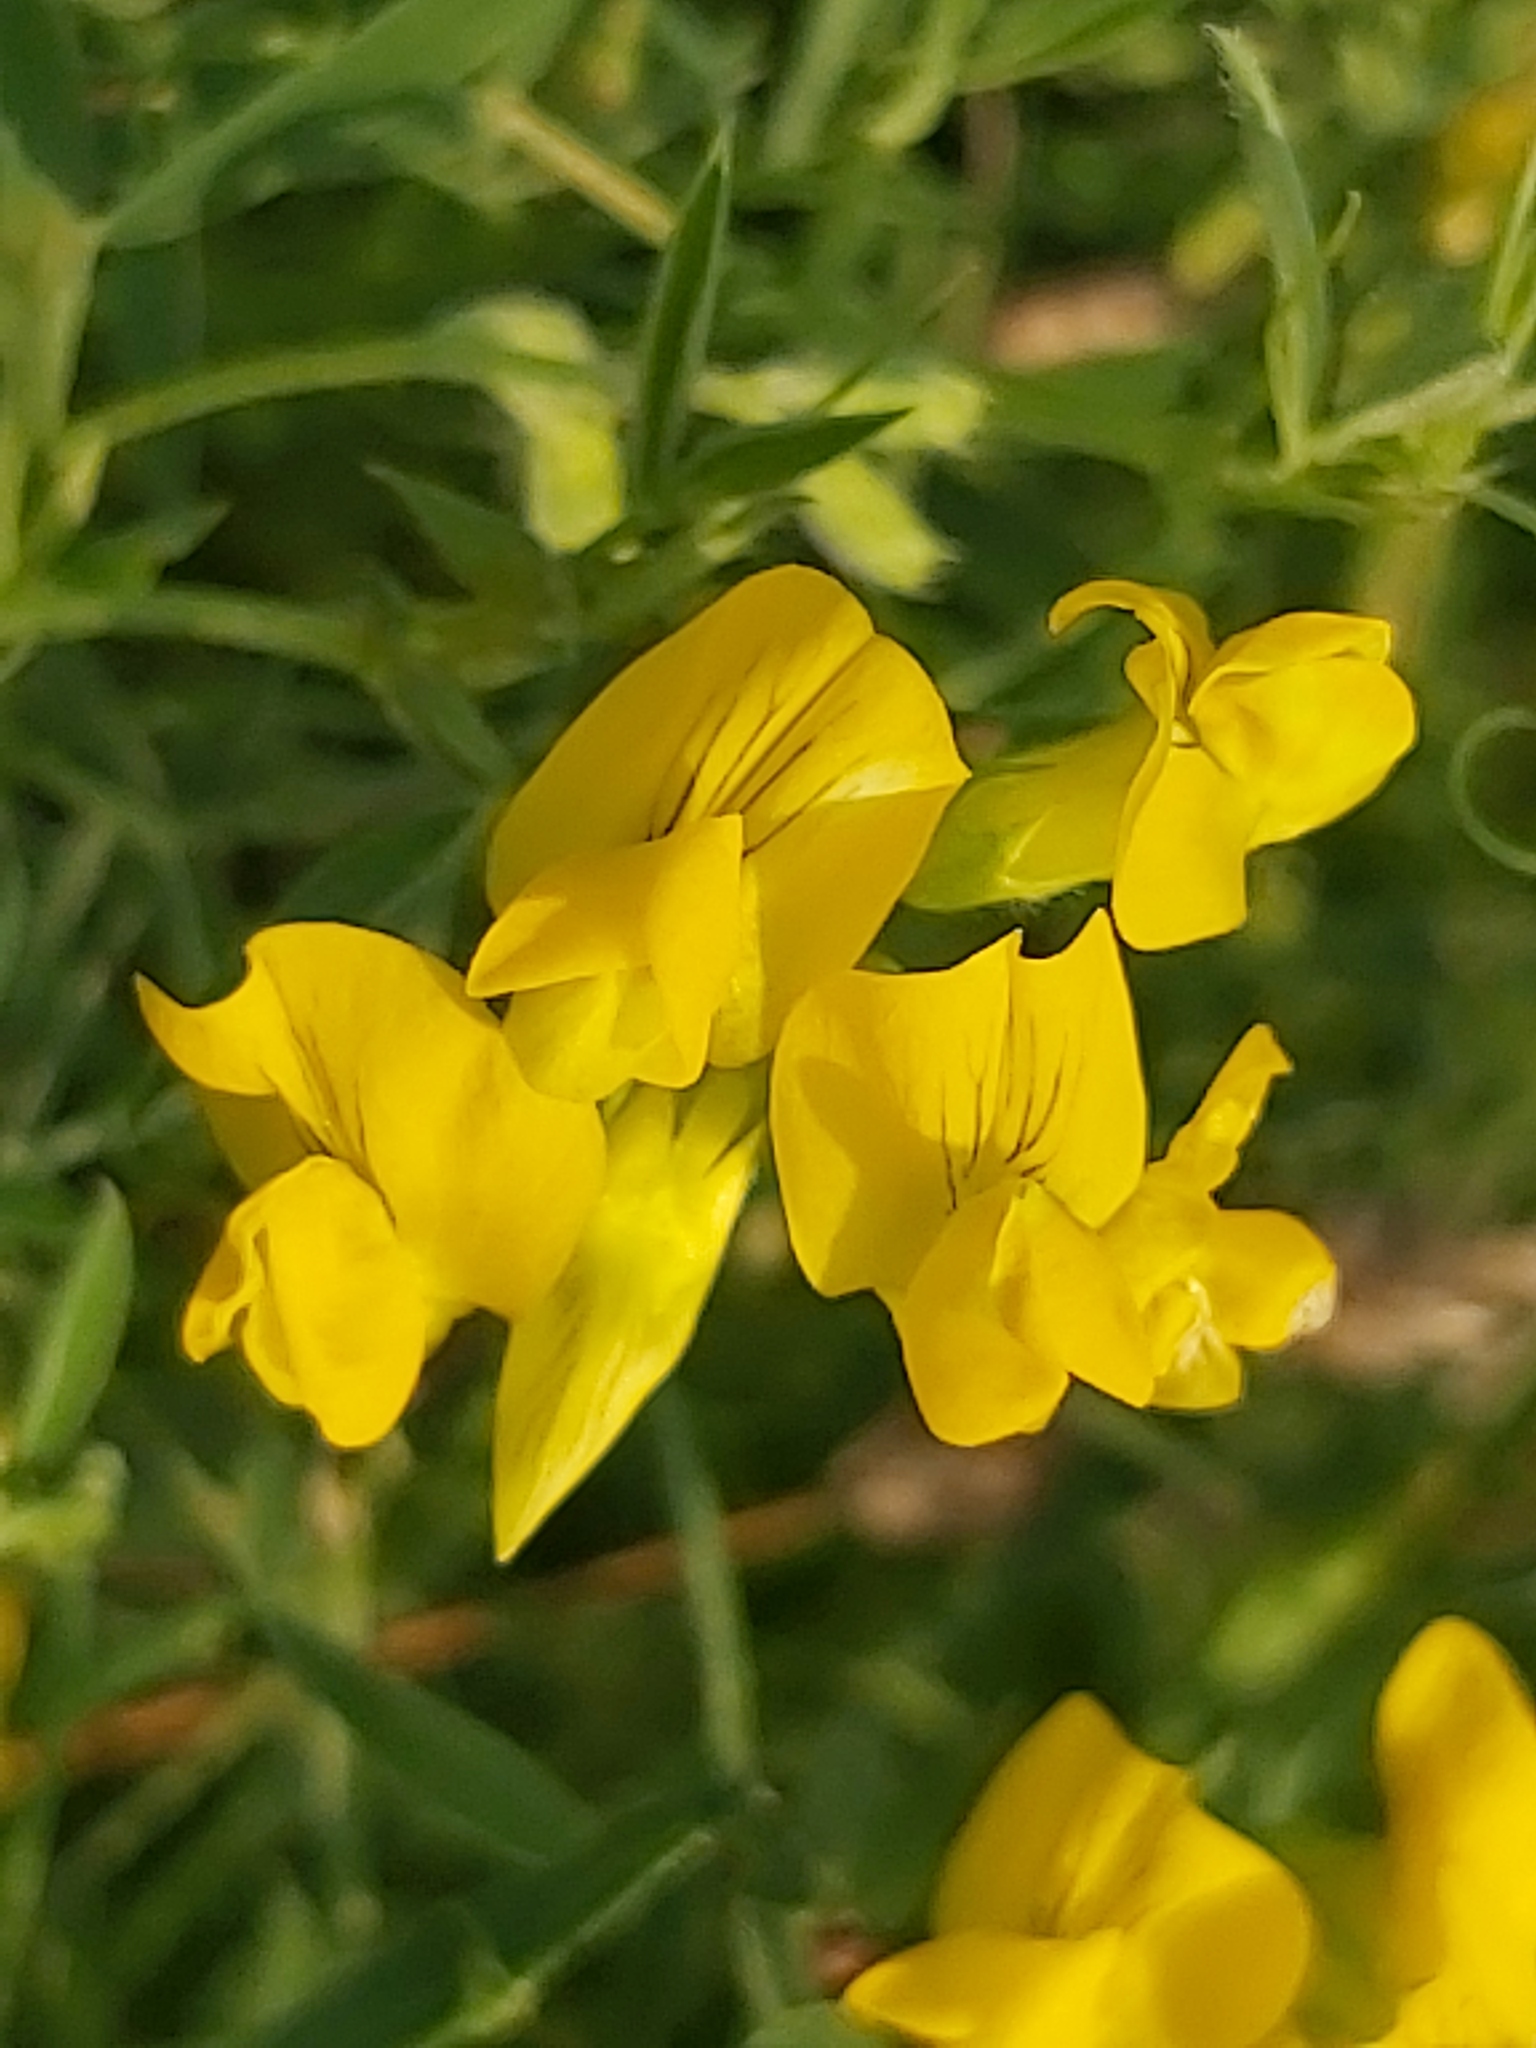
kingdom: Plantae
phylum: Tracheophyta
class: Magnoliopsida
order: Fabales
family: Fabaceae
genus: Lathyrus
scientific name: Lathyrus pratensis
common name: Meadow vetchling
